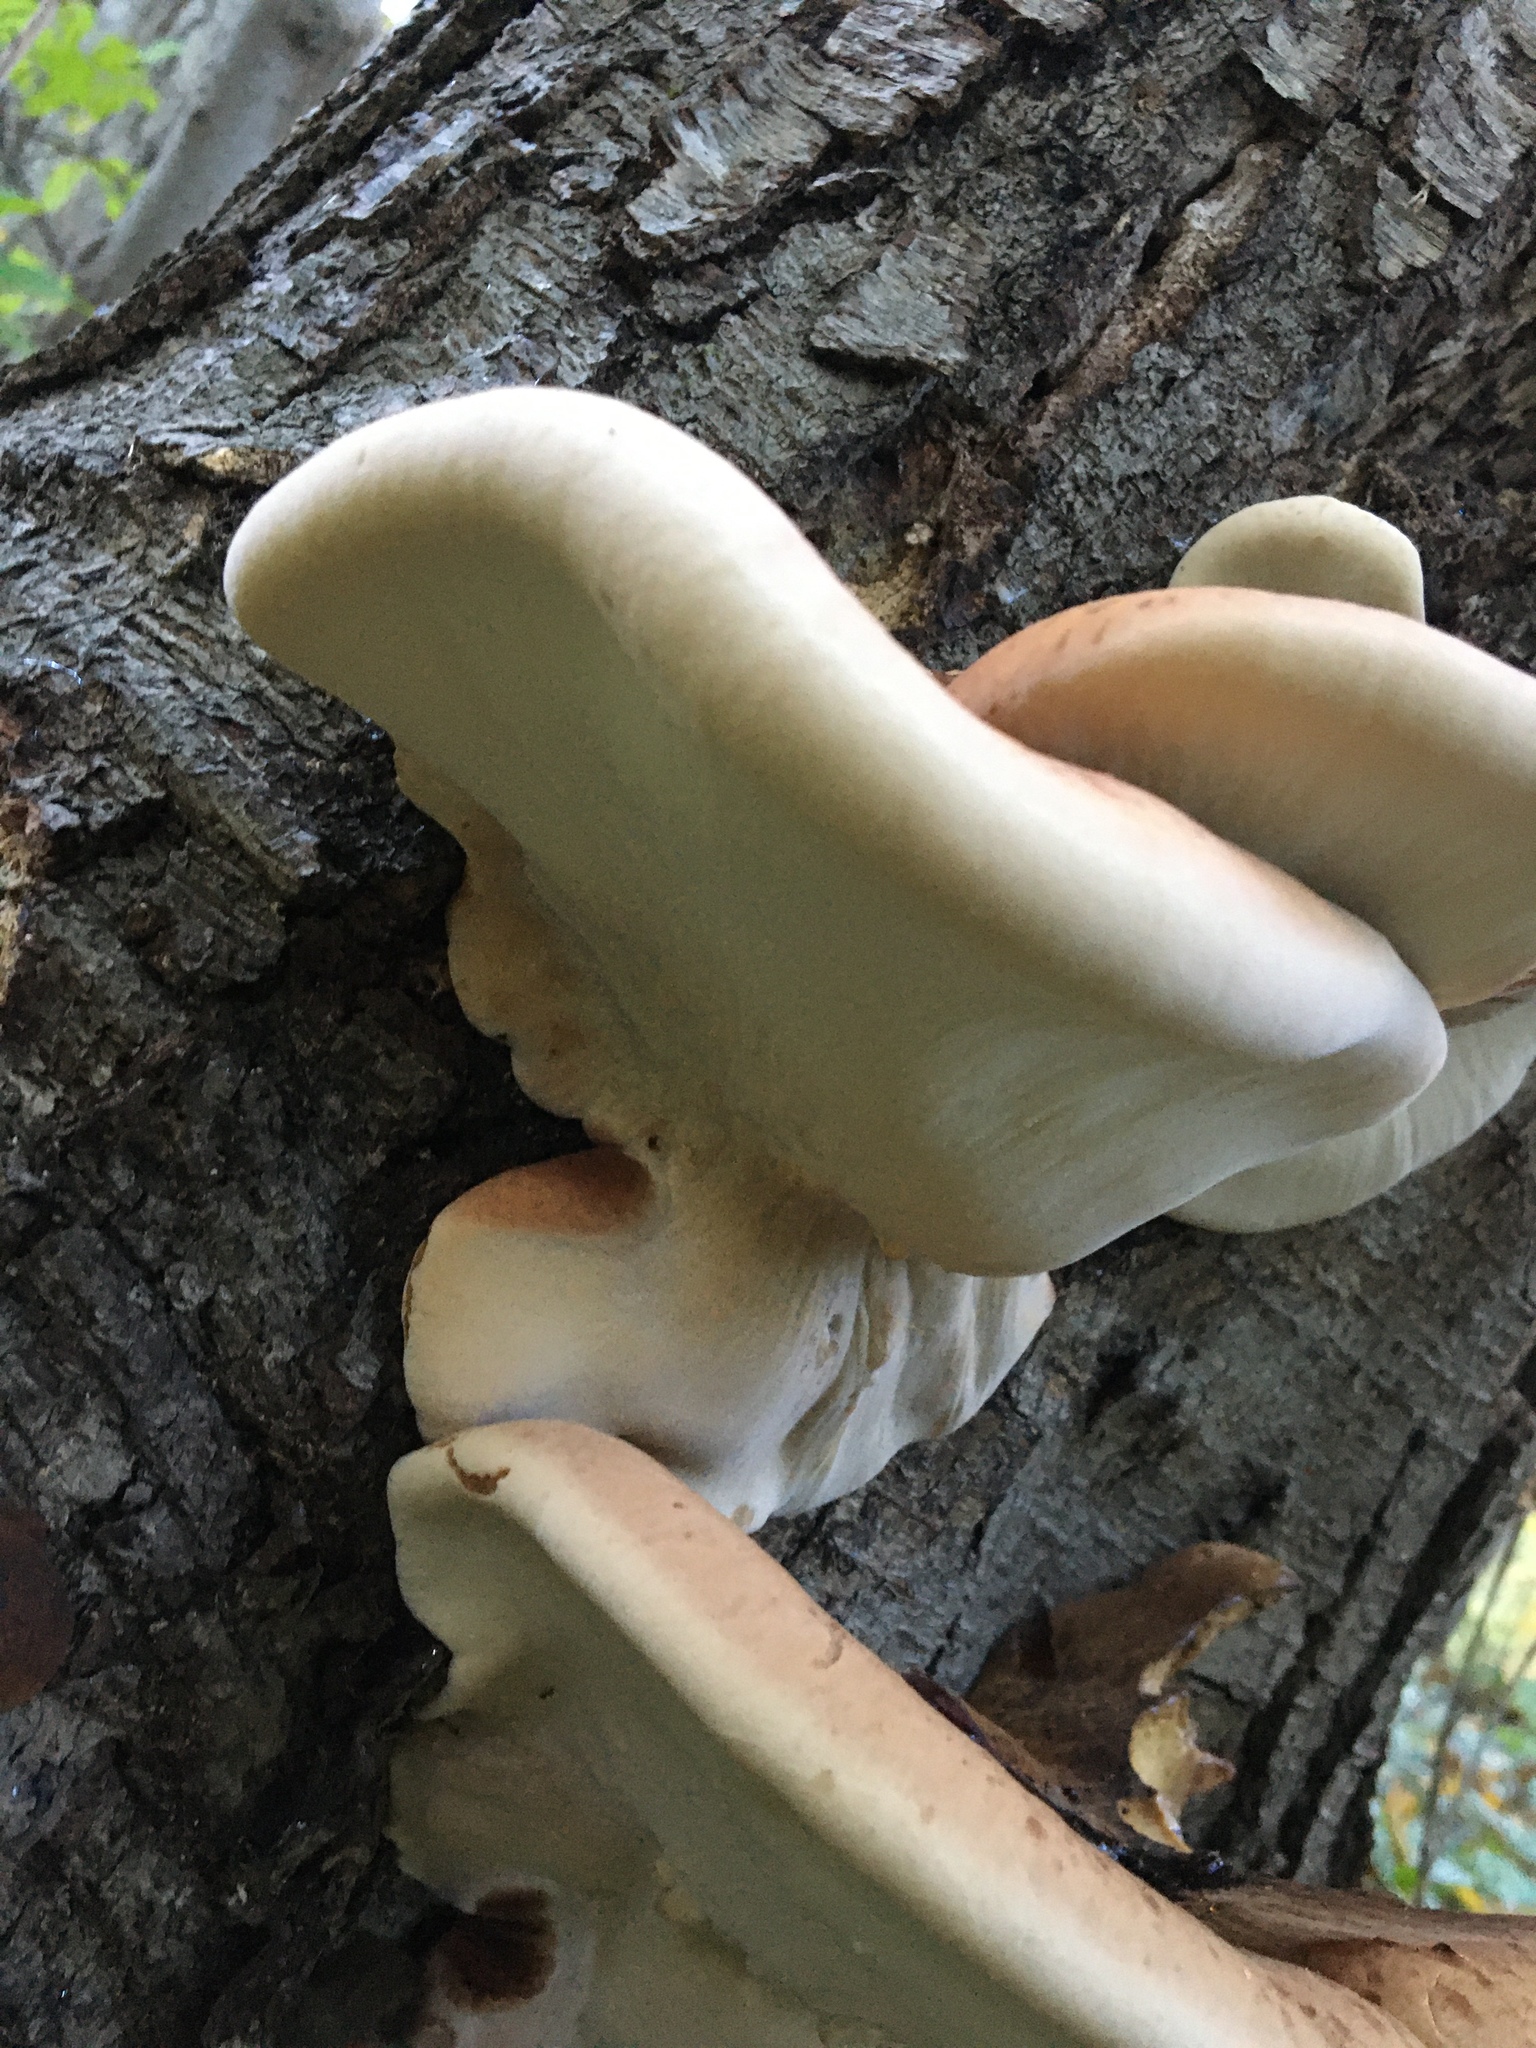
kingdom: Fungi
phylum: Basidiomycota
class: Agaricomycetes
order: Polyporales
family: Ischnodermataceae
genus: Ischnoderma
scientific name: Ischnoderma resinosum
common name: Resinous polypore
